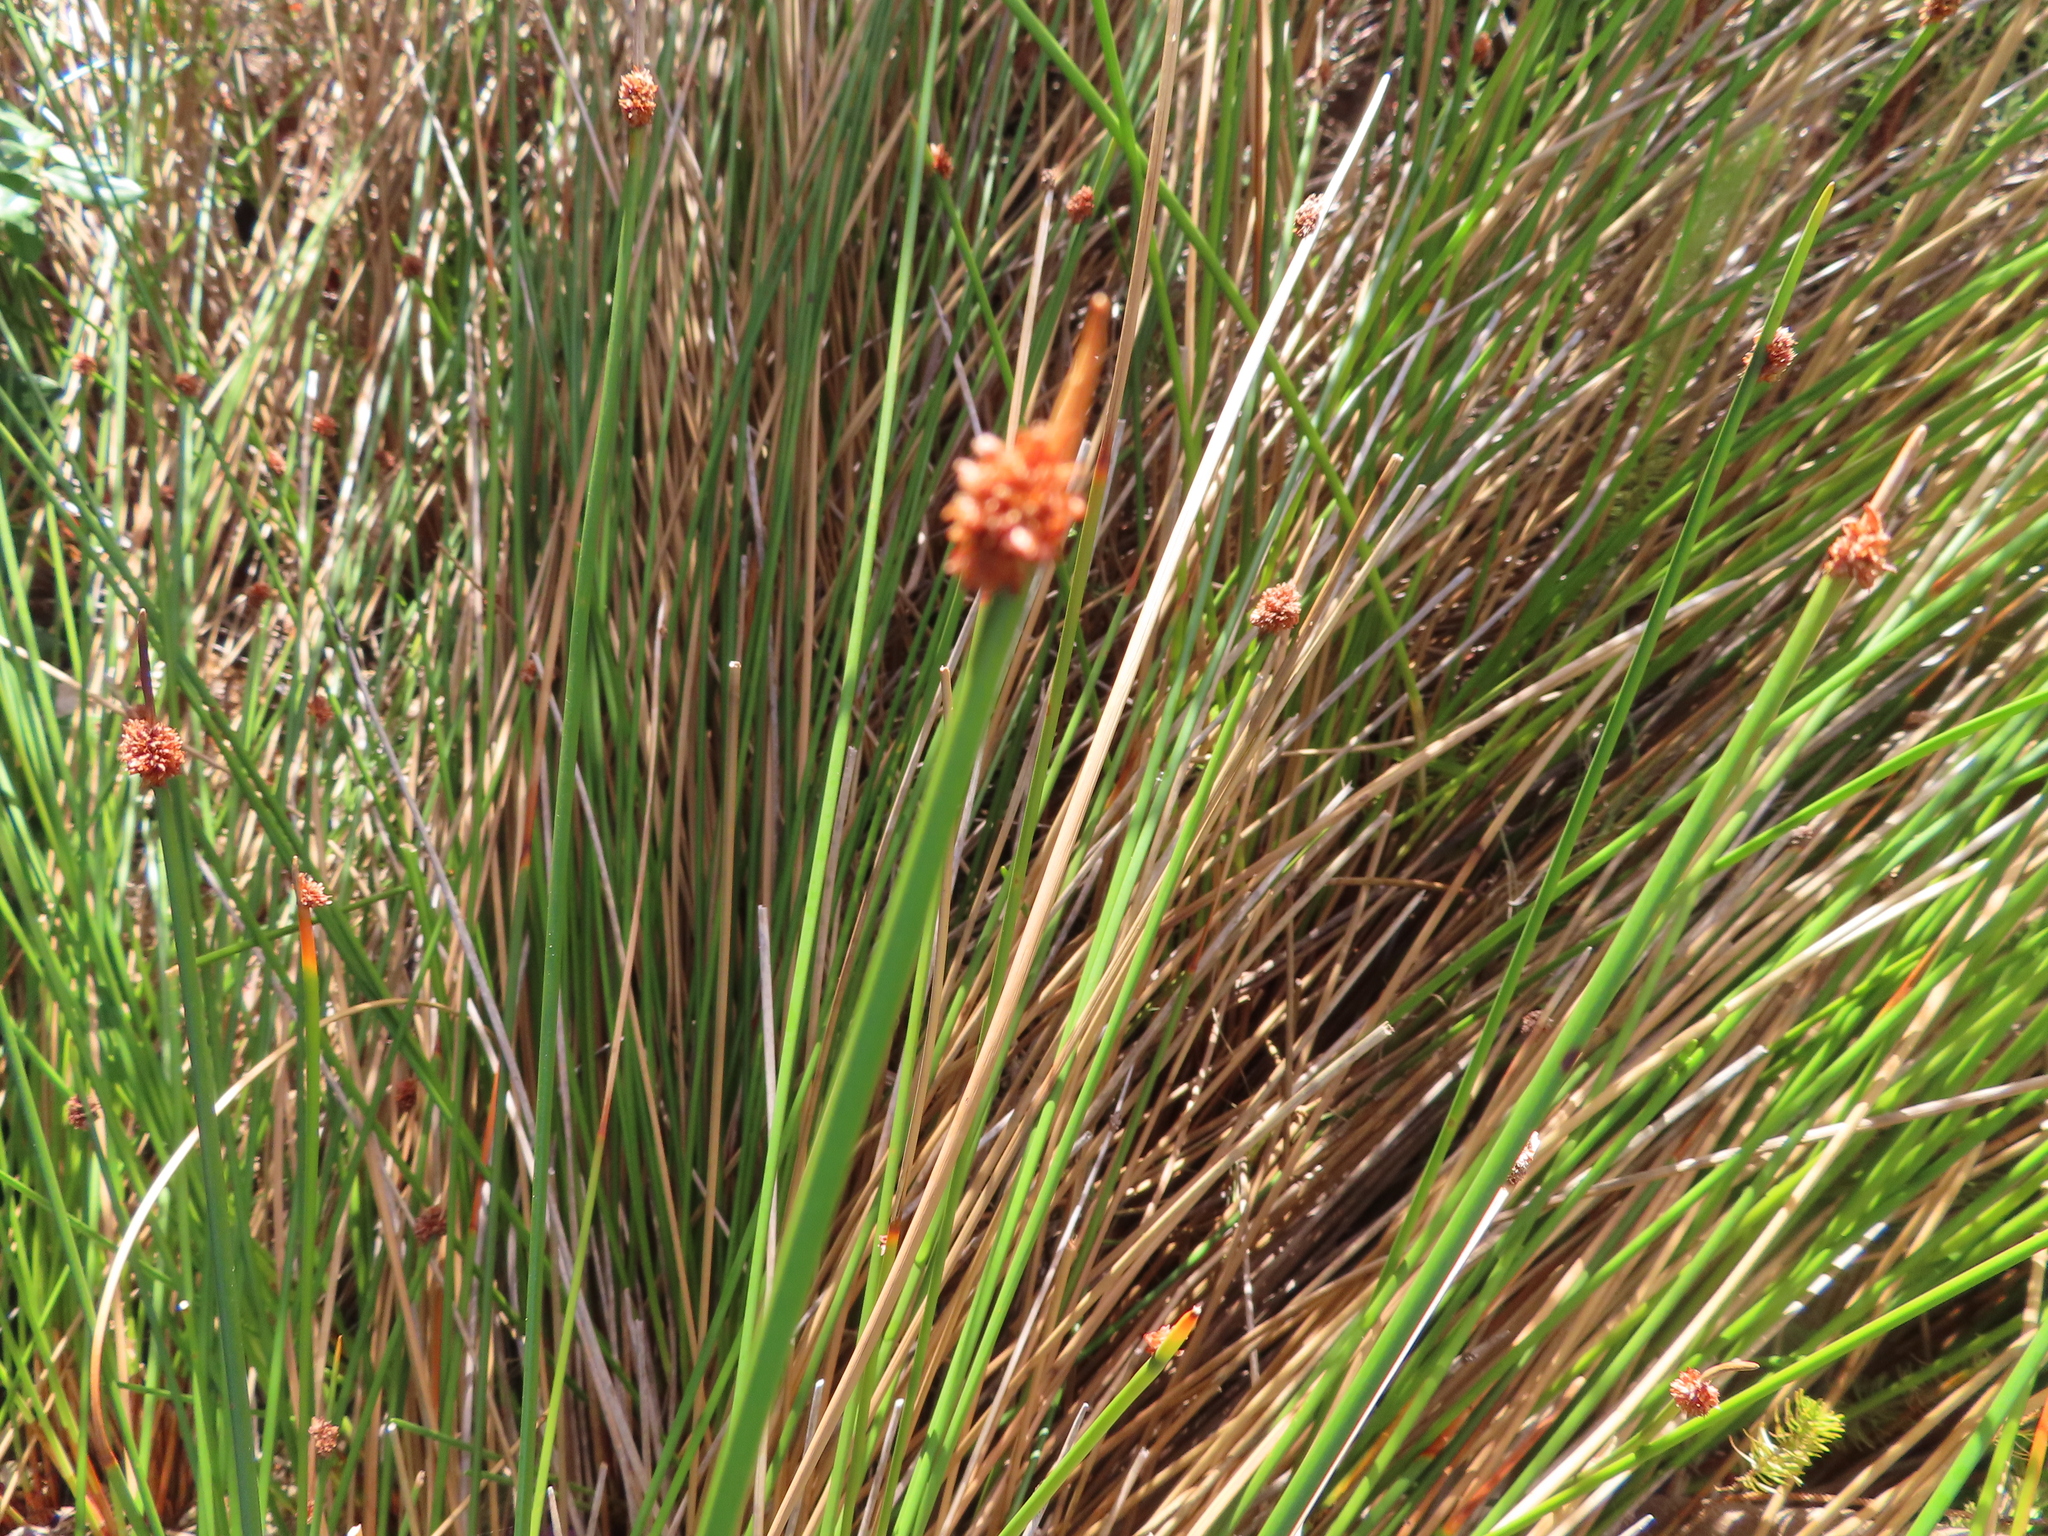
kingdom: Plantae
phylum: Tracheophyta
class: Liliopsida
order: Poales
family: Cyperaceae
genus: Ficinia
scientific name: Ficinia nodosa
